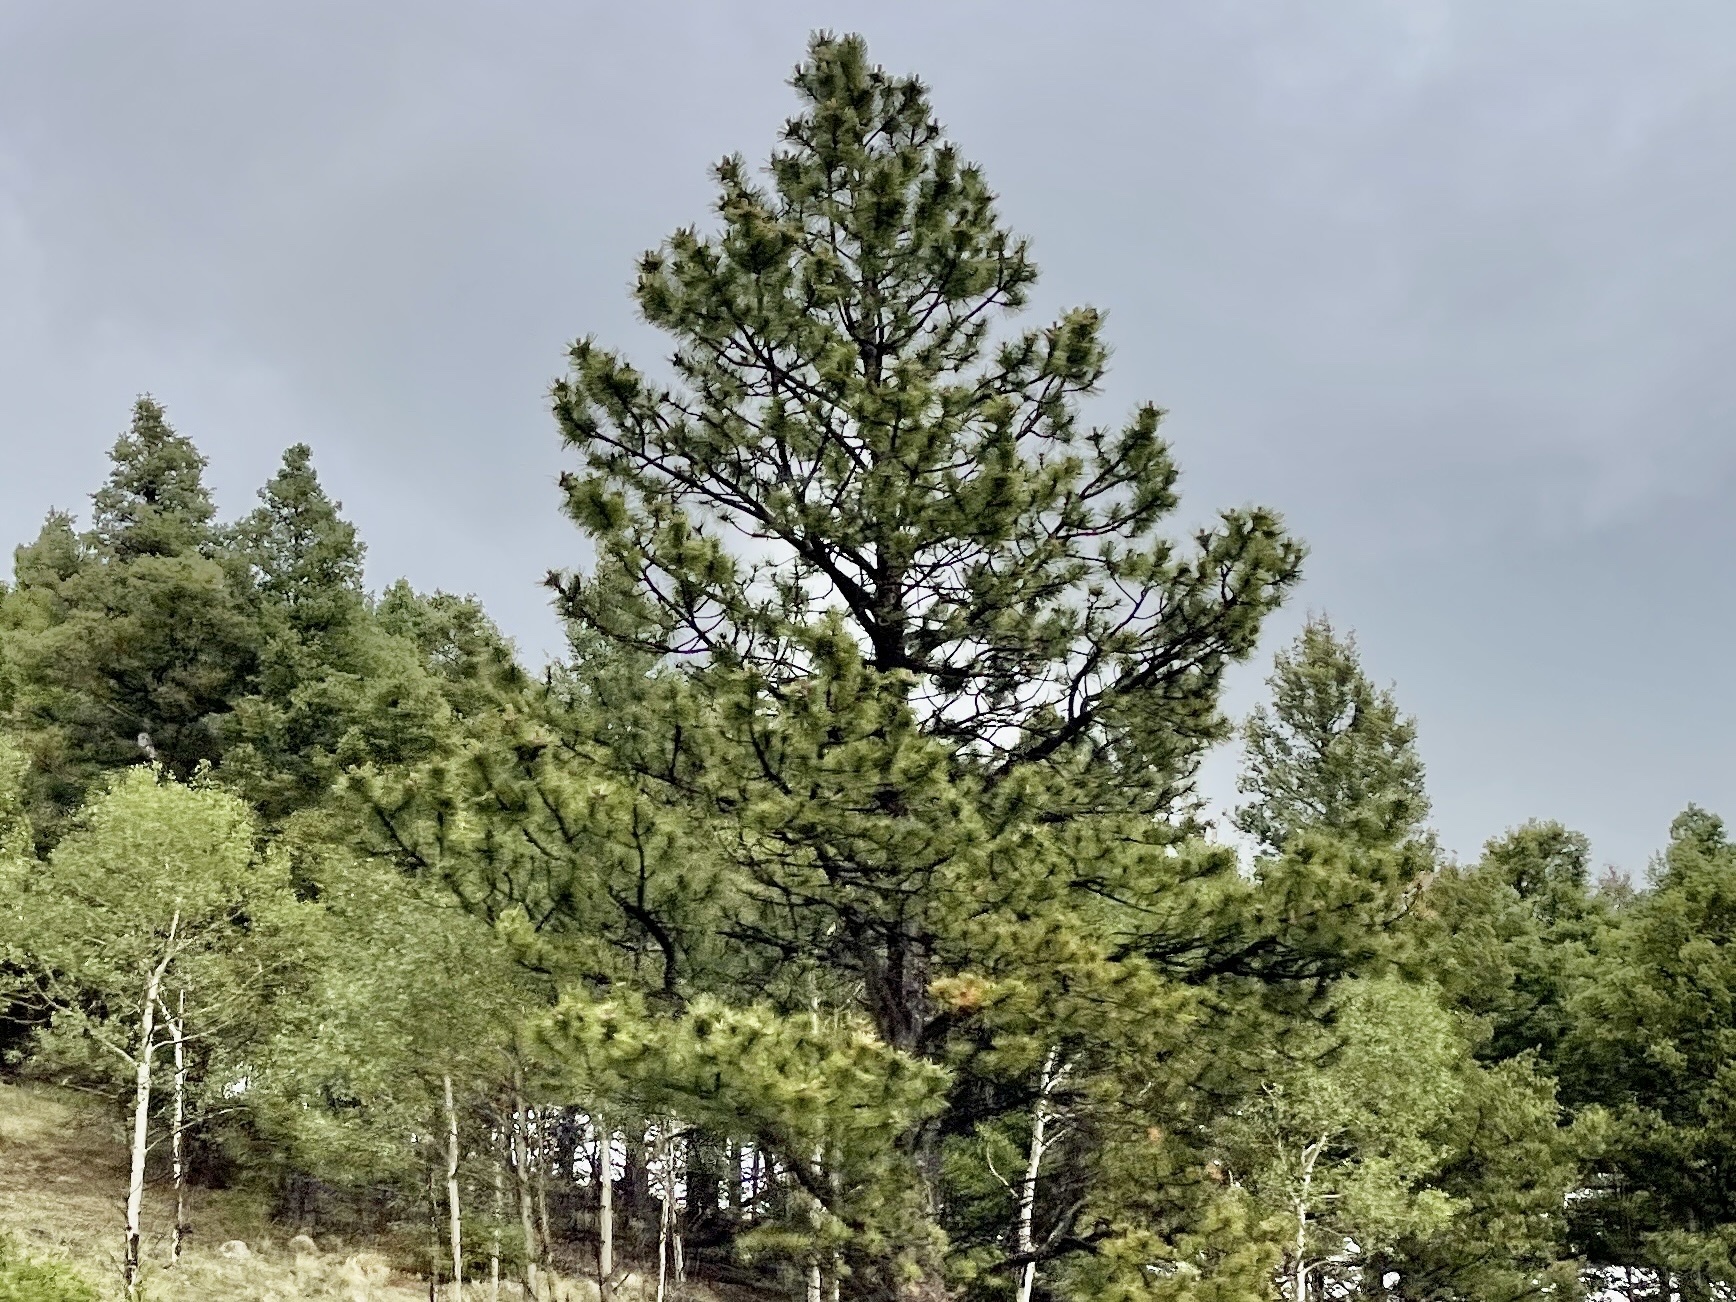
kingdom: Plantae
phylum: Tracheophyta
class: Pinopsida
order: Pinales
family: Pinaceae
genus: Pinus
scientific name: Pinus ponderosa
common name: Western yellow-pine
